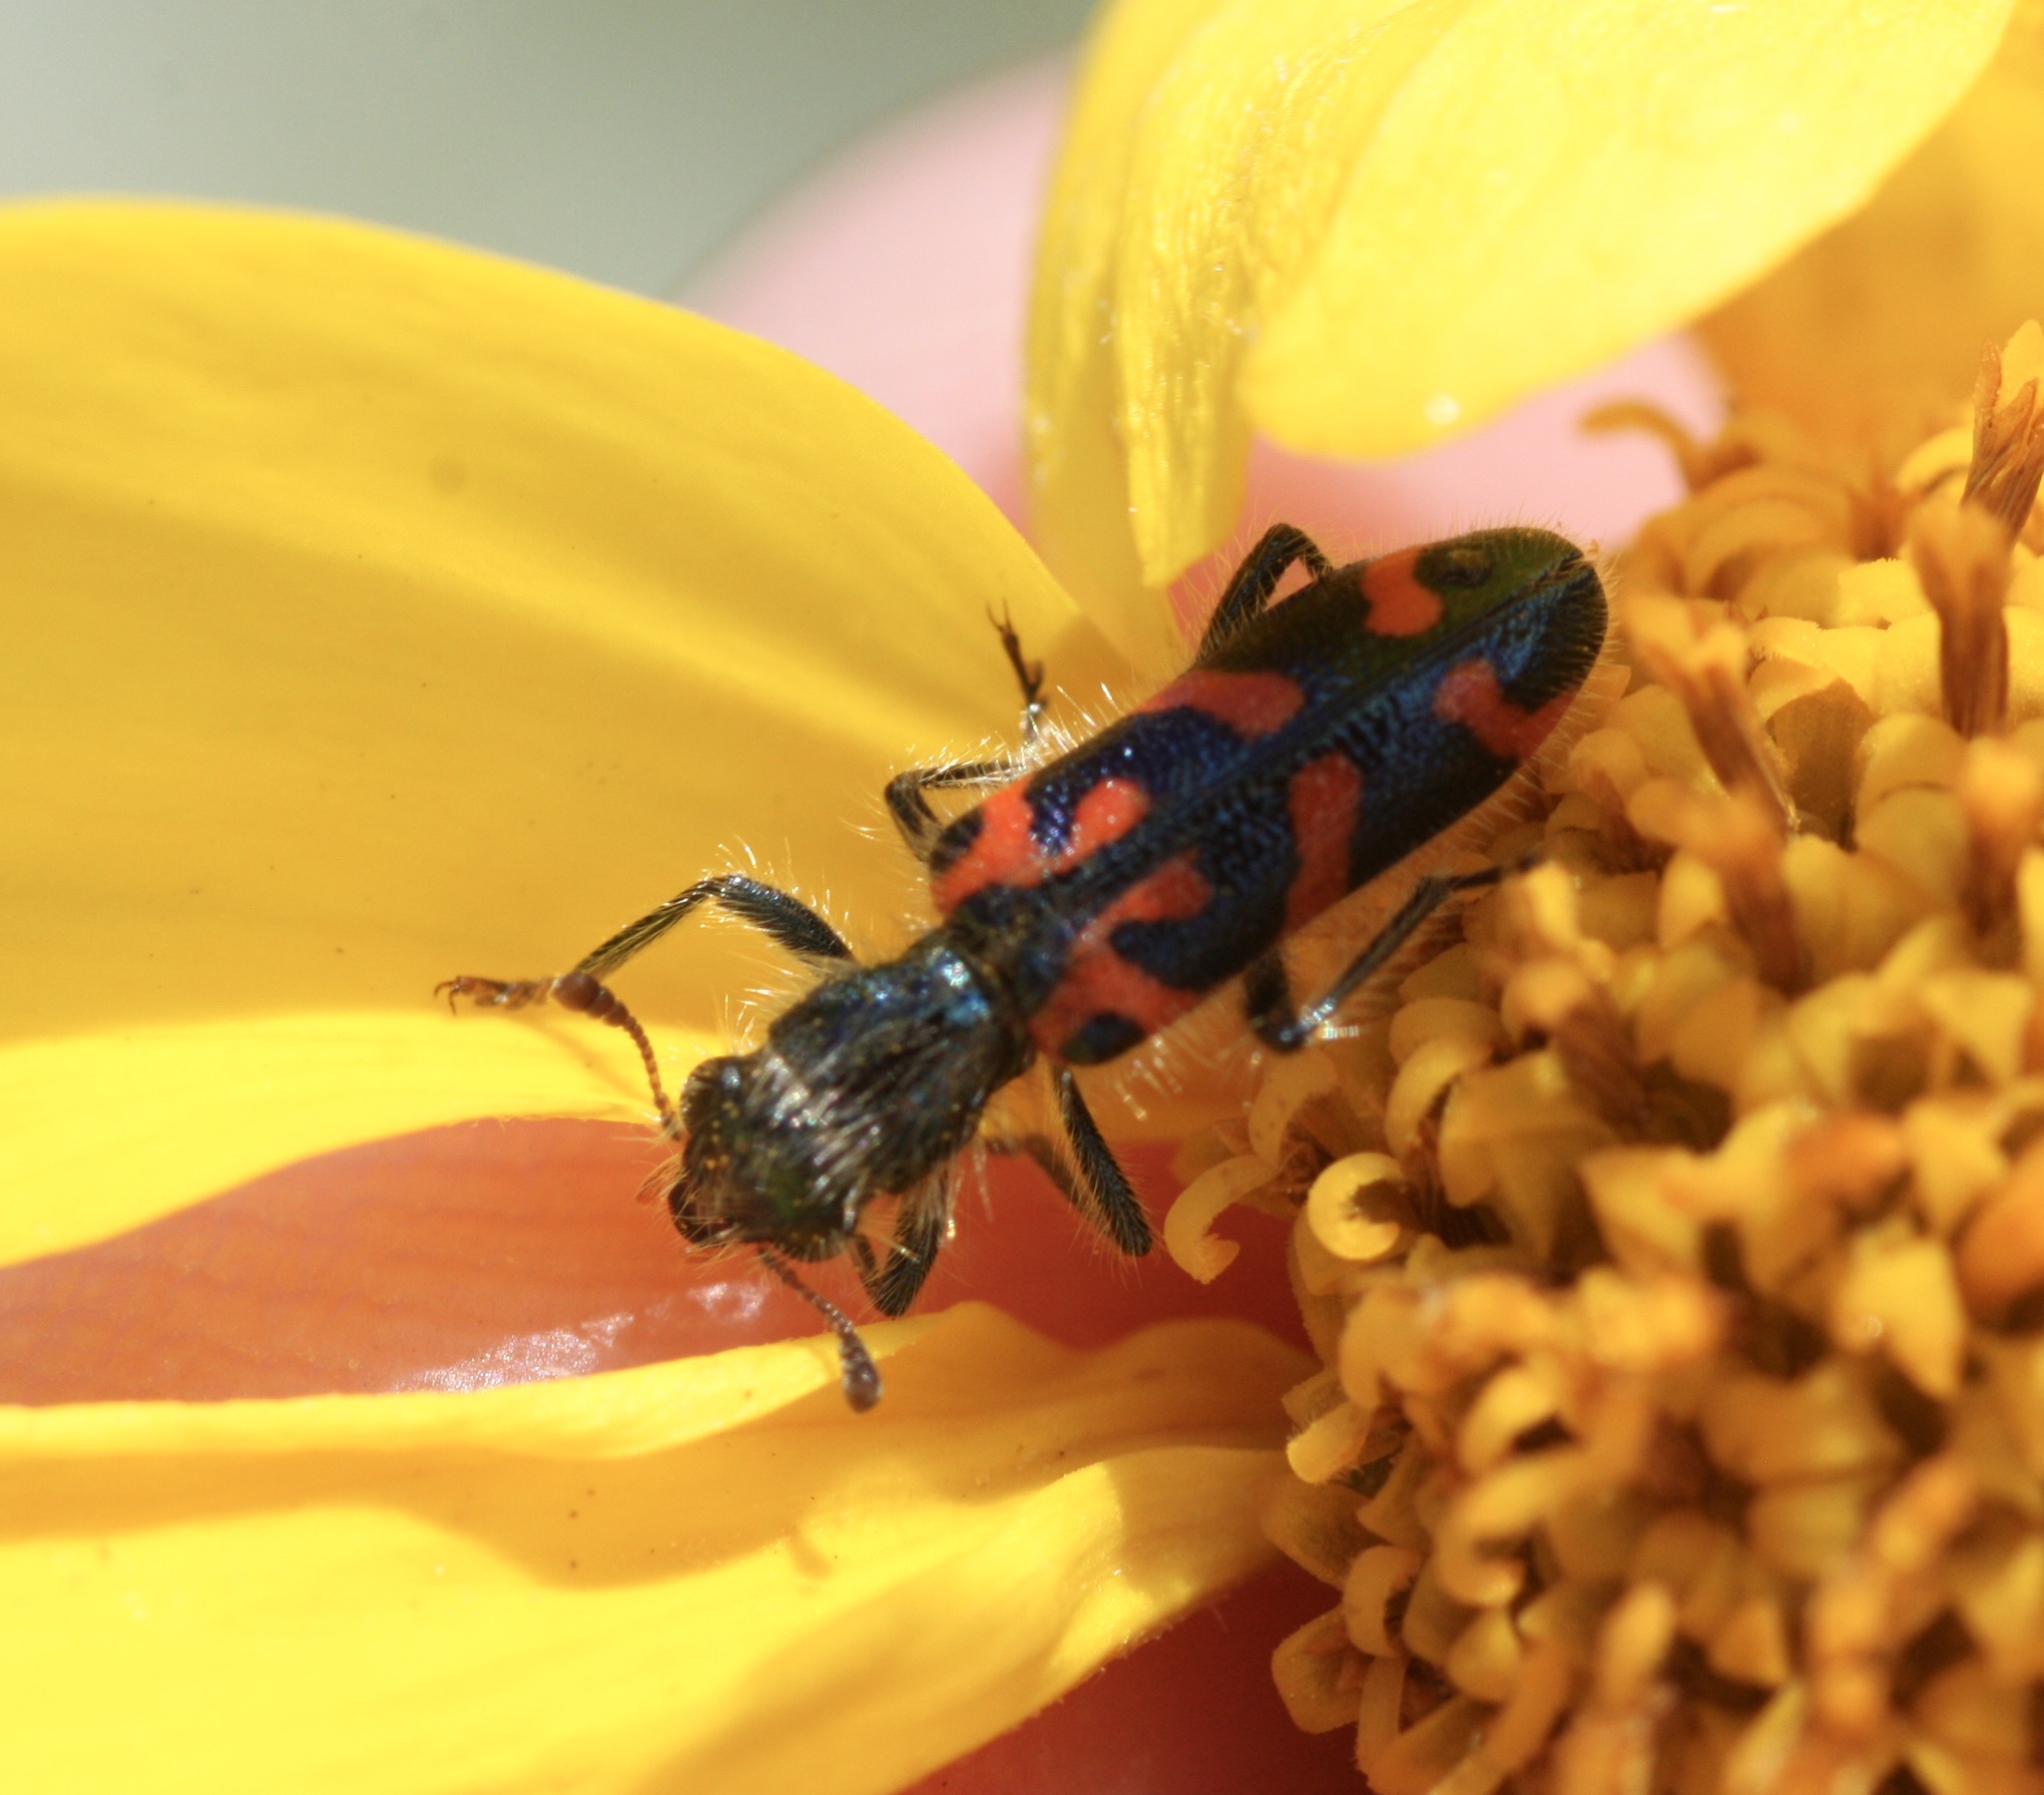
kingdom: Animalia
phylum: Arthropoda
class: Insecta
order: Coleoptera
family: Cleridae
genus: Trichodes
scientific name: Trichodes ornatus
